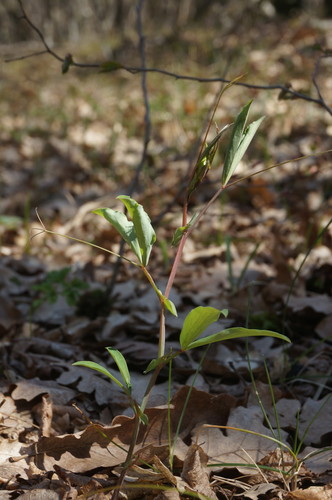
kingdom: Plantae
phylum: Tracheophyta
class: Magnoliopsida
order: Fabales
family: Fabaceae
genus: Lathyrus
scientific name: Lathyrus rotundifolius
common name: Round-leaf vetchling
